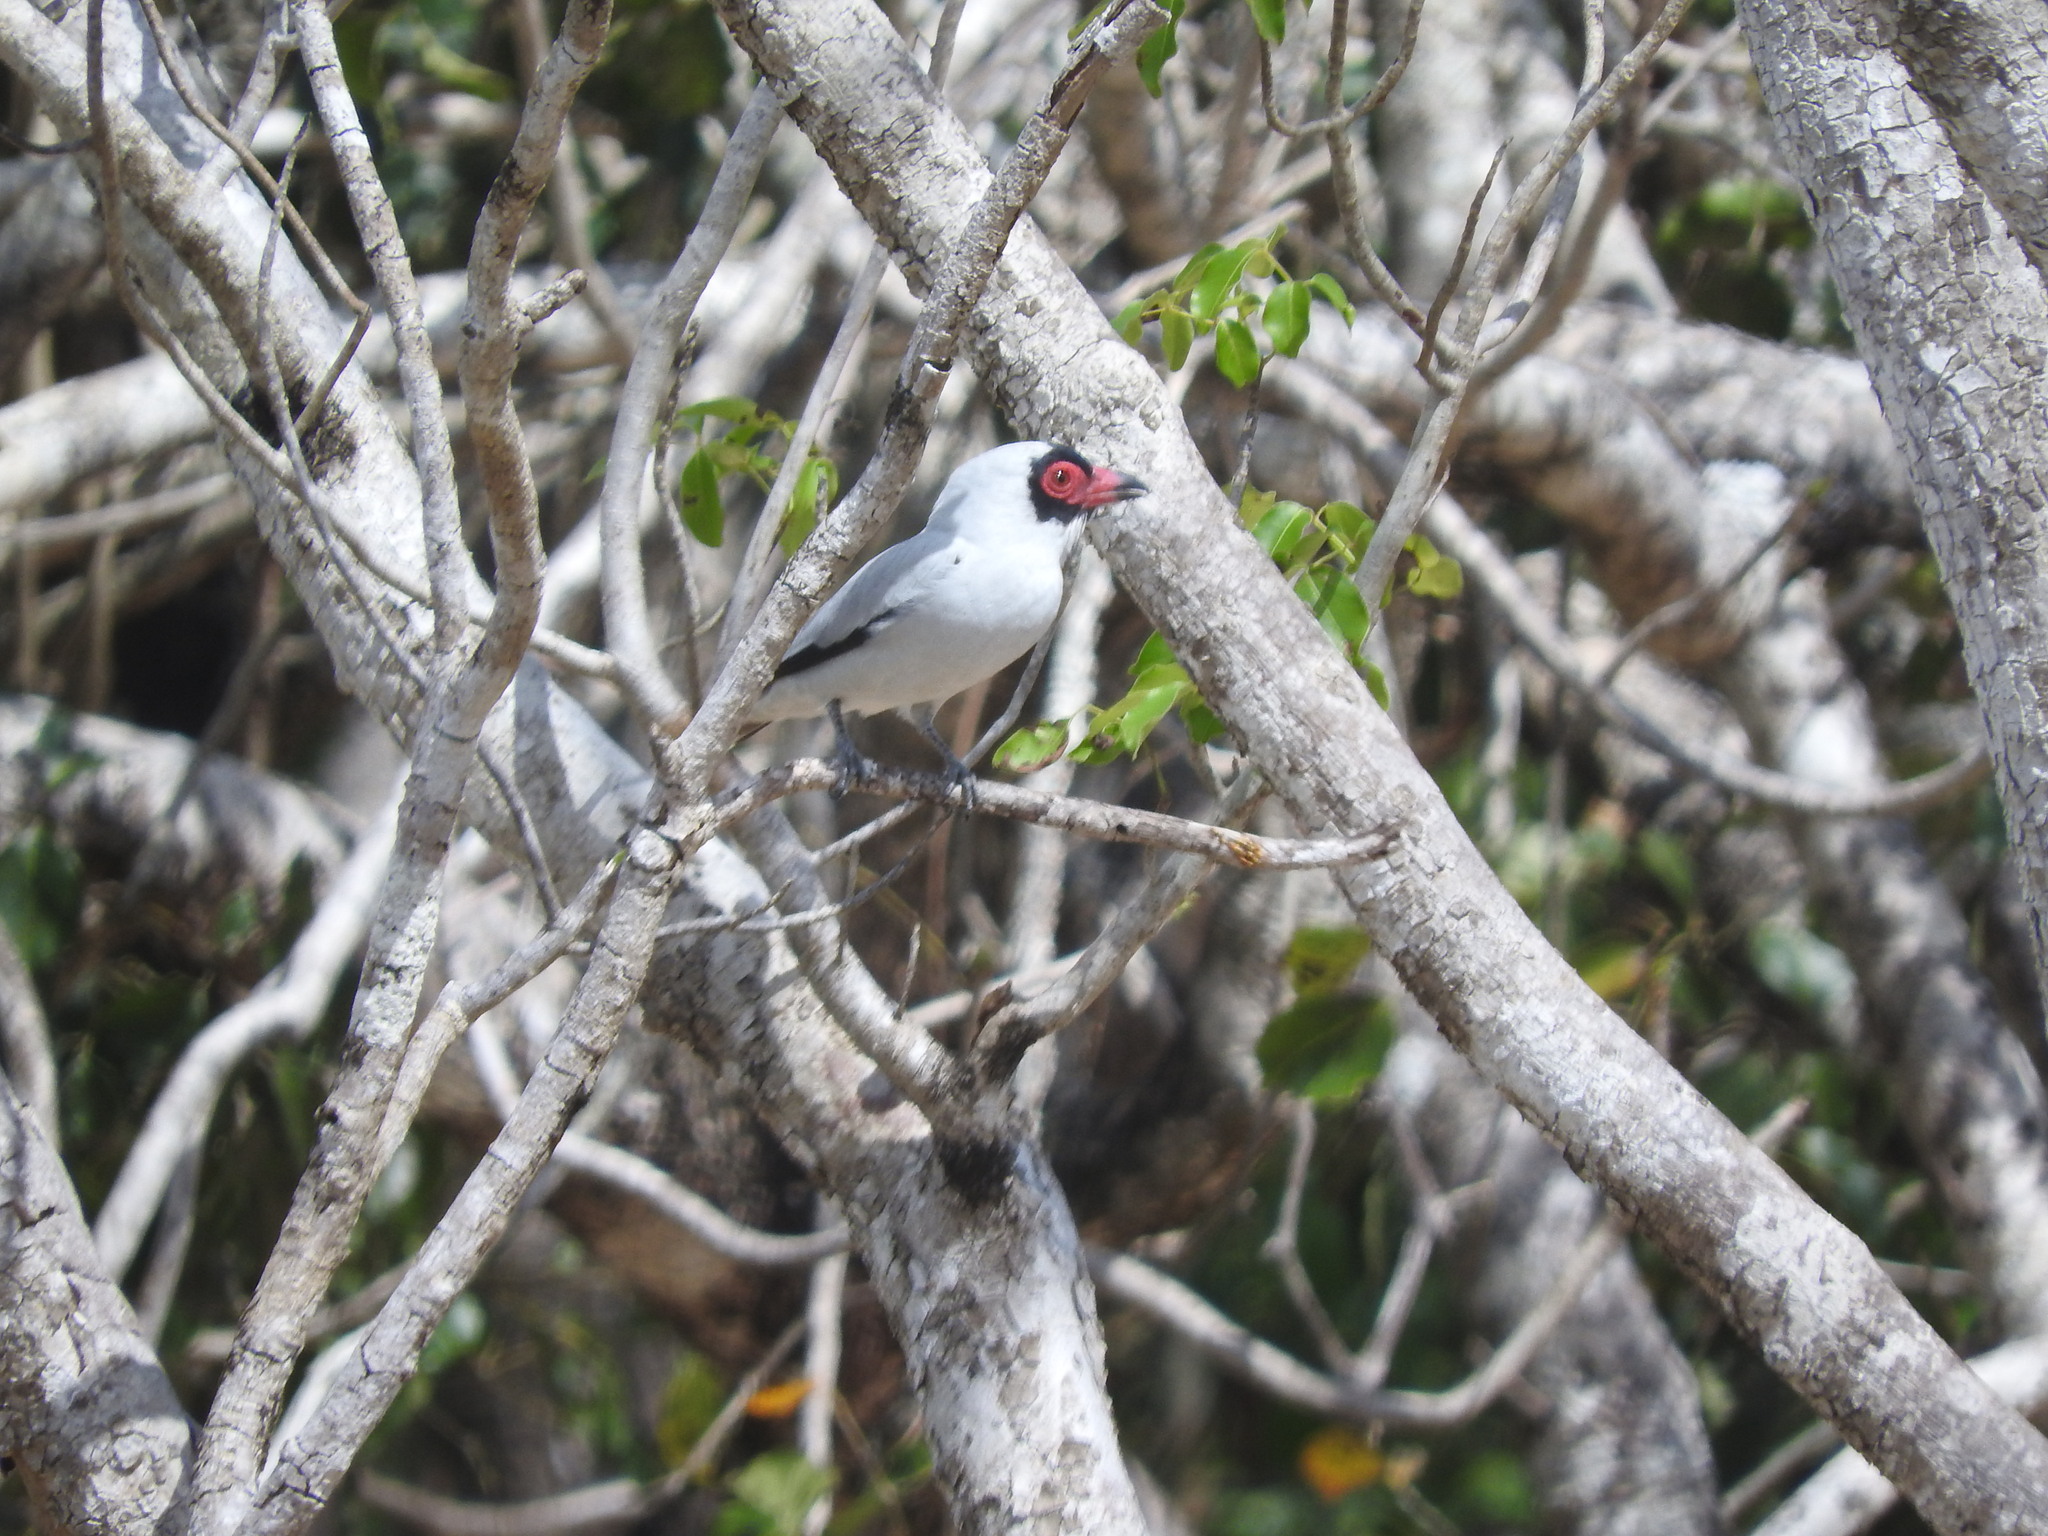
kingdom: Animalia
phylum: Chordata
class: Aves
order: Passeriformes
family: Cotingidae
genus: Tityra
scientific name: Tityra semifasciata
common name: Masked tityra
